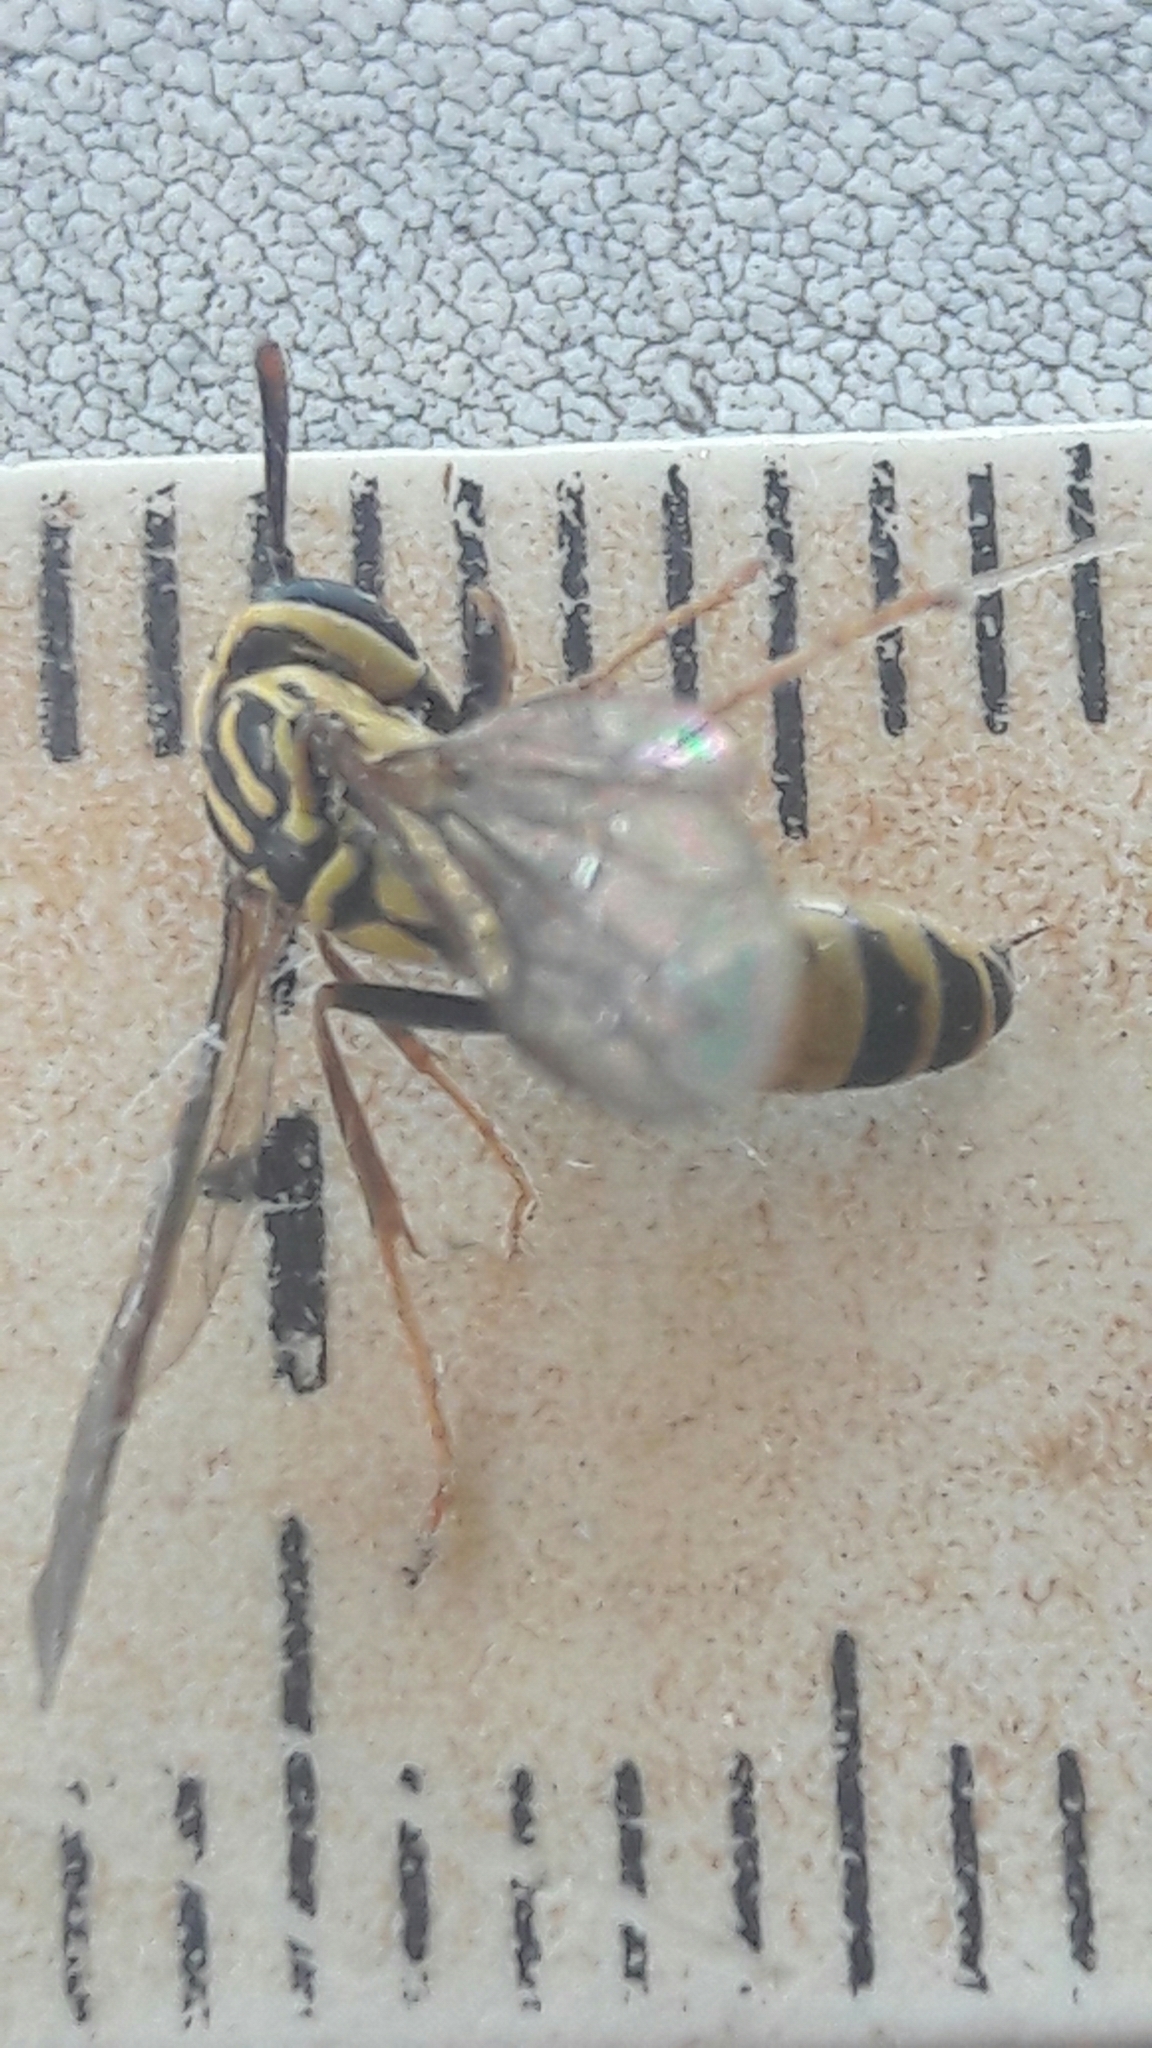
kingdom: Animalia
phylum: Arthropoda
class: Insecta
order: Hymenoptera
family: Eumenidae
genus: Polybia
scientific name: Polybia fastidiosuscula
